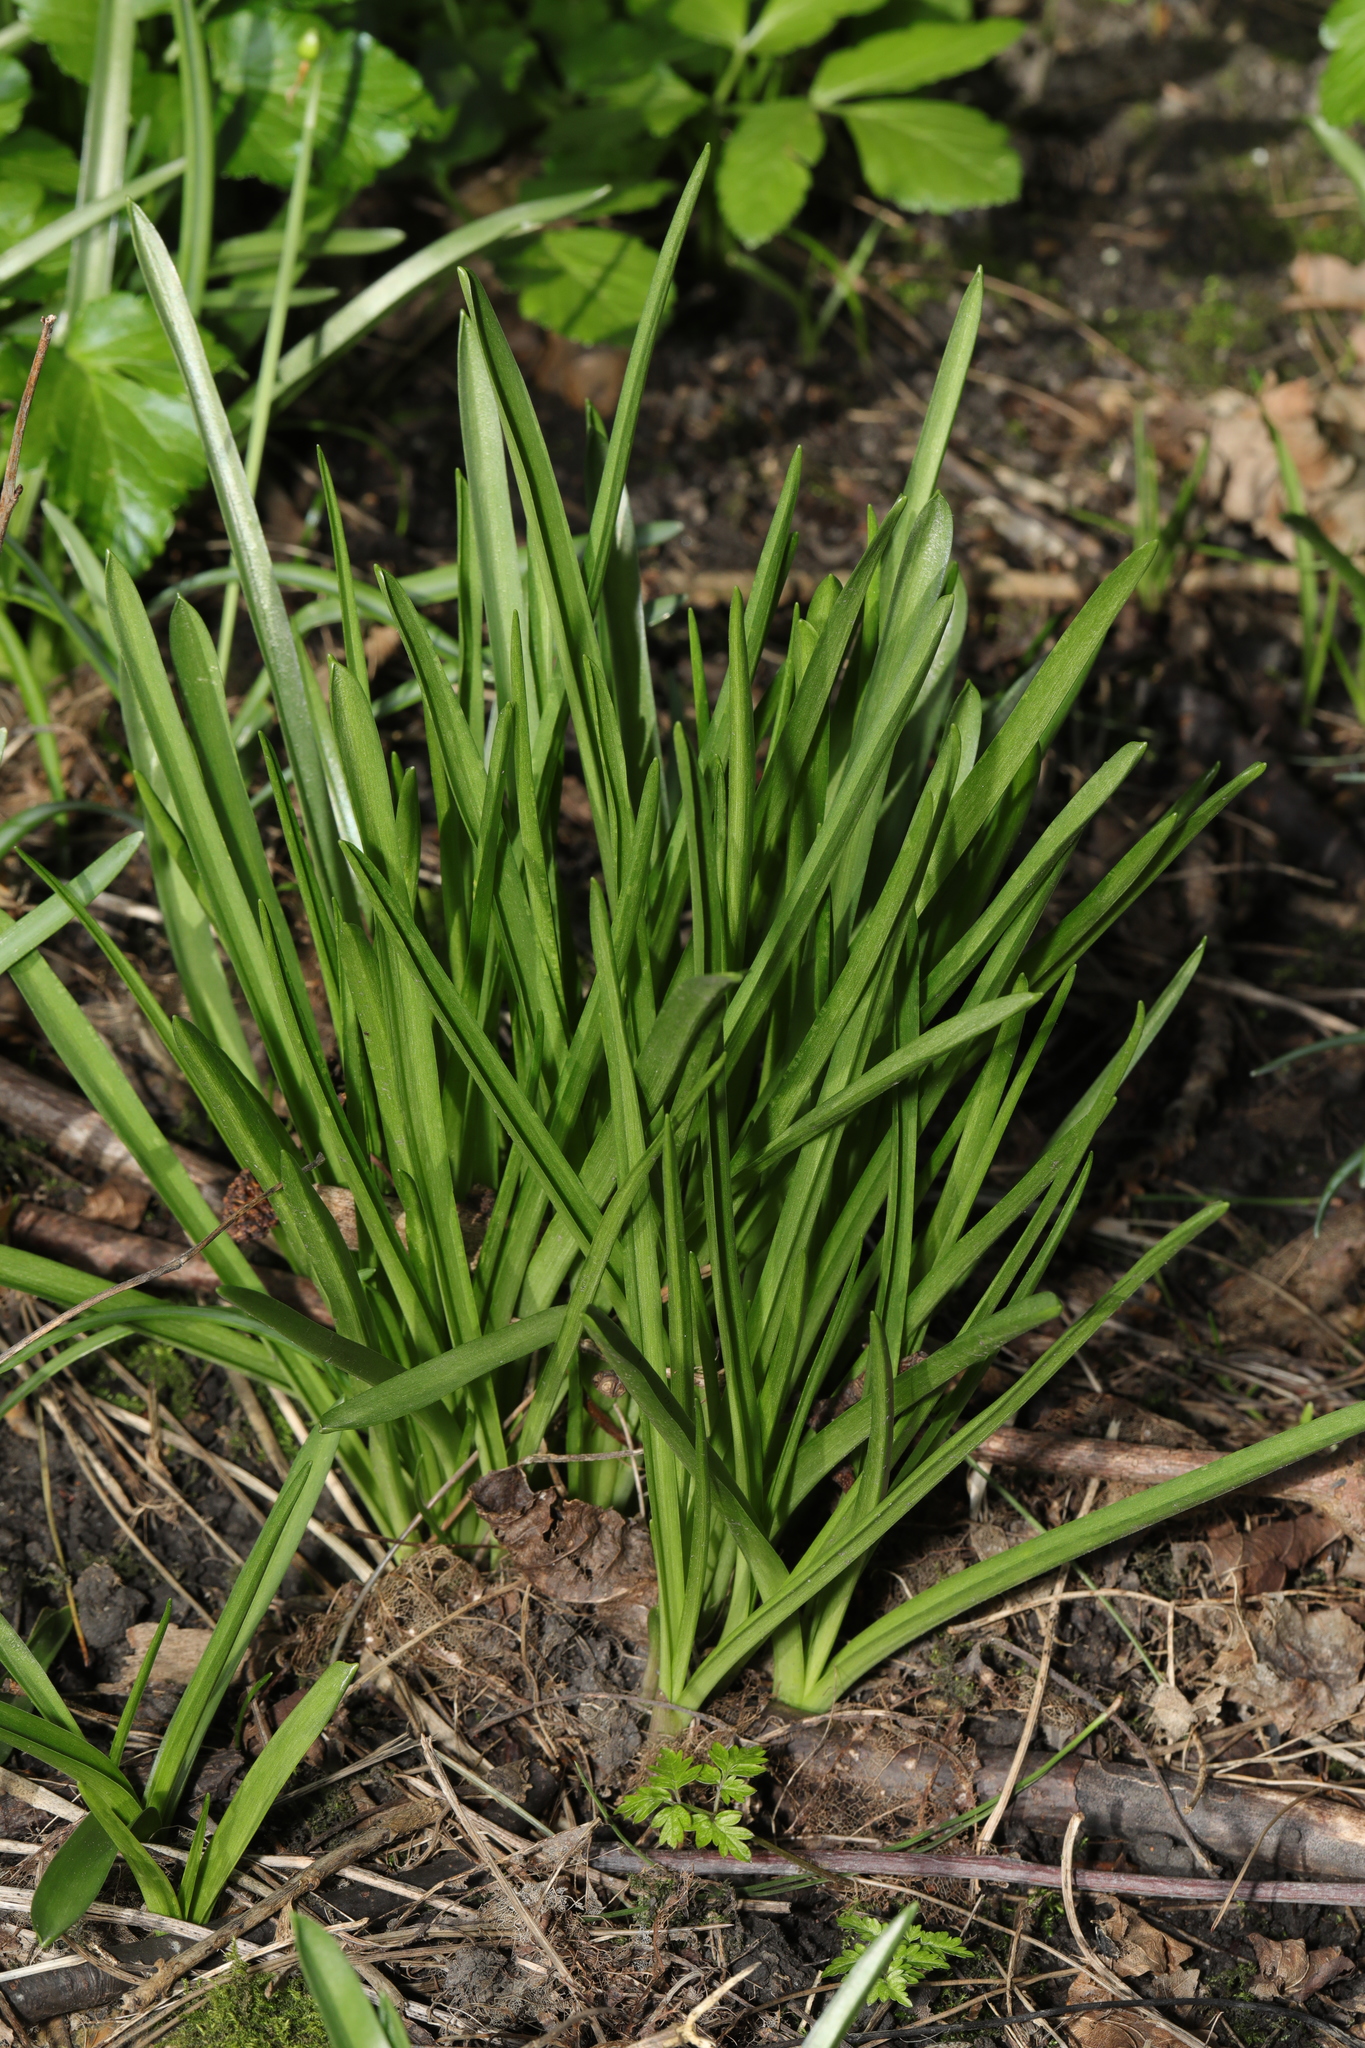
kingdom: Plantae
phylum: Tracheophyta
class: Liliopsida
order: Asparagales
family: Asparagaceae
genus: Hyacinthoides
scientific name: Hyacinthoides massartiana
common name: Hyacinthoides
